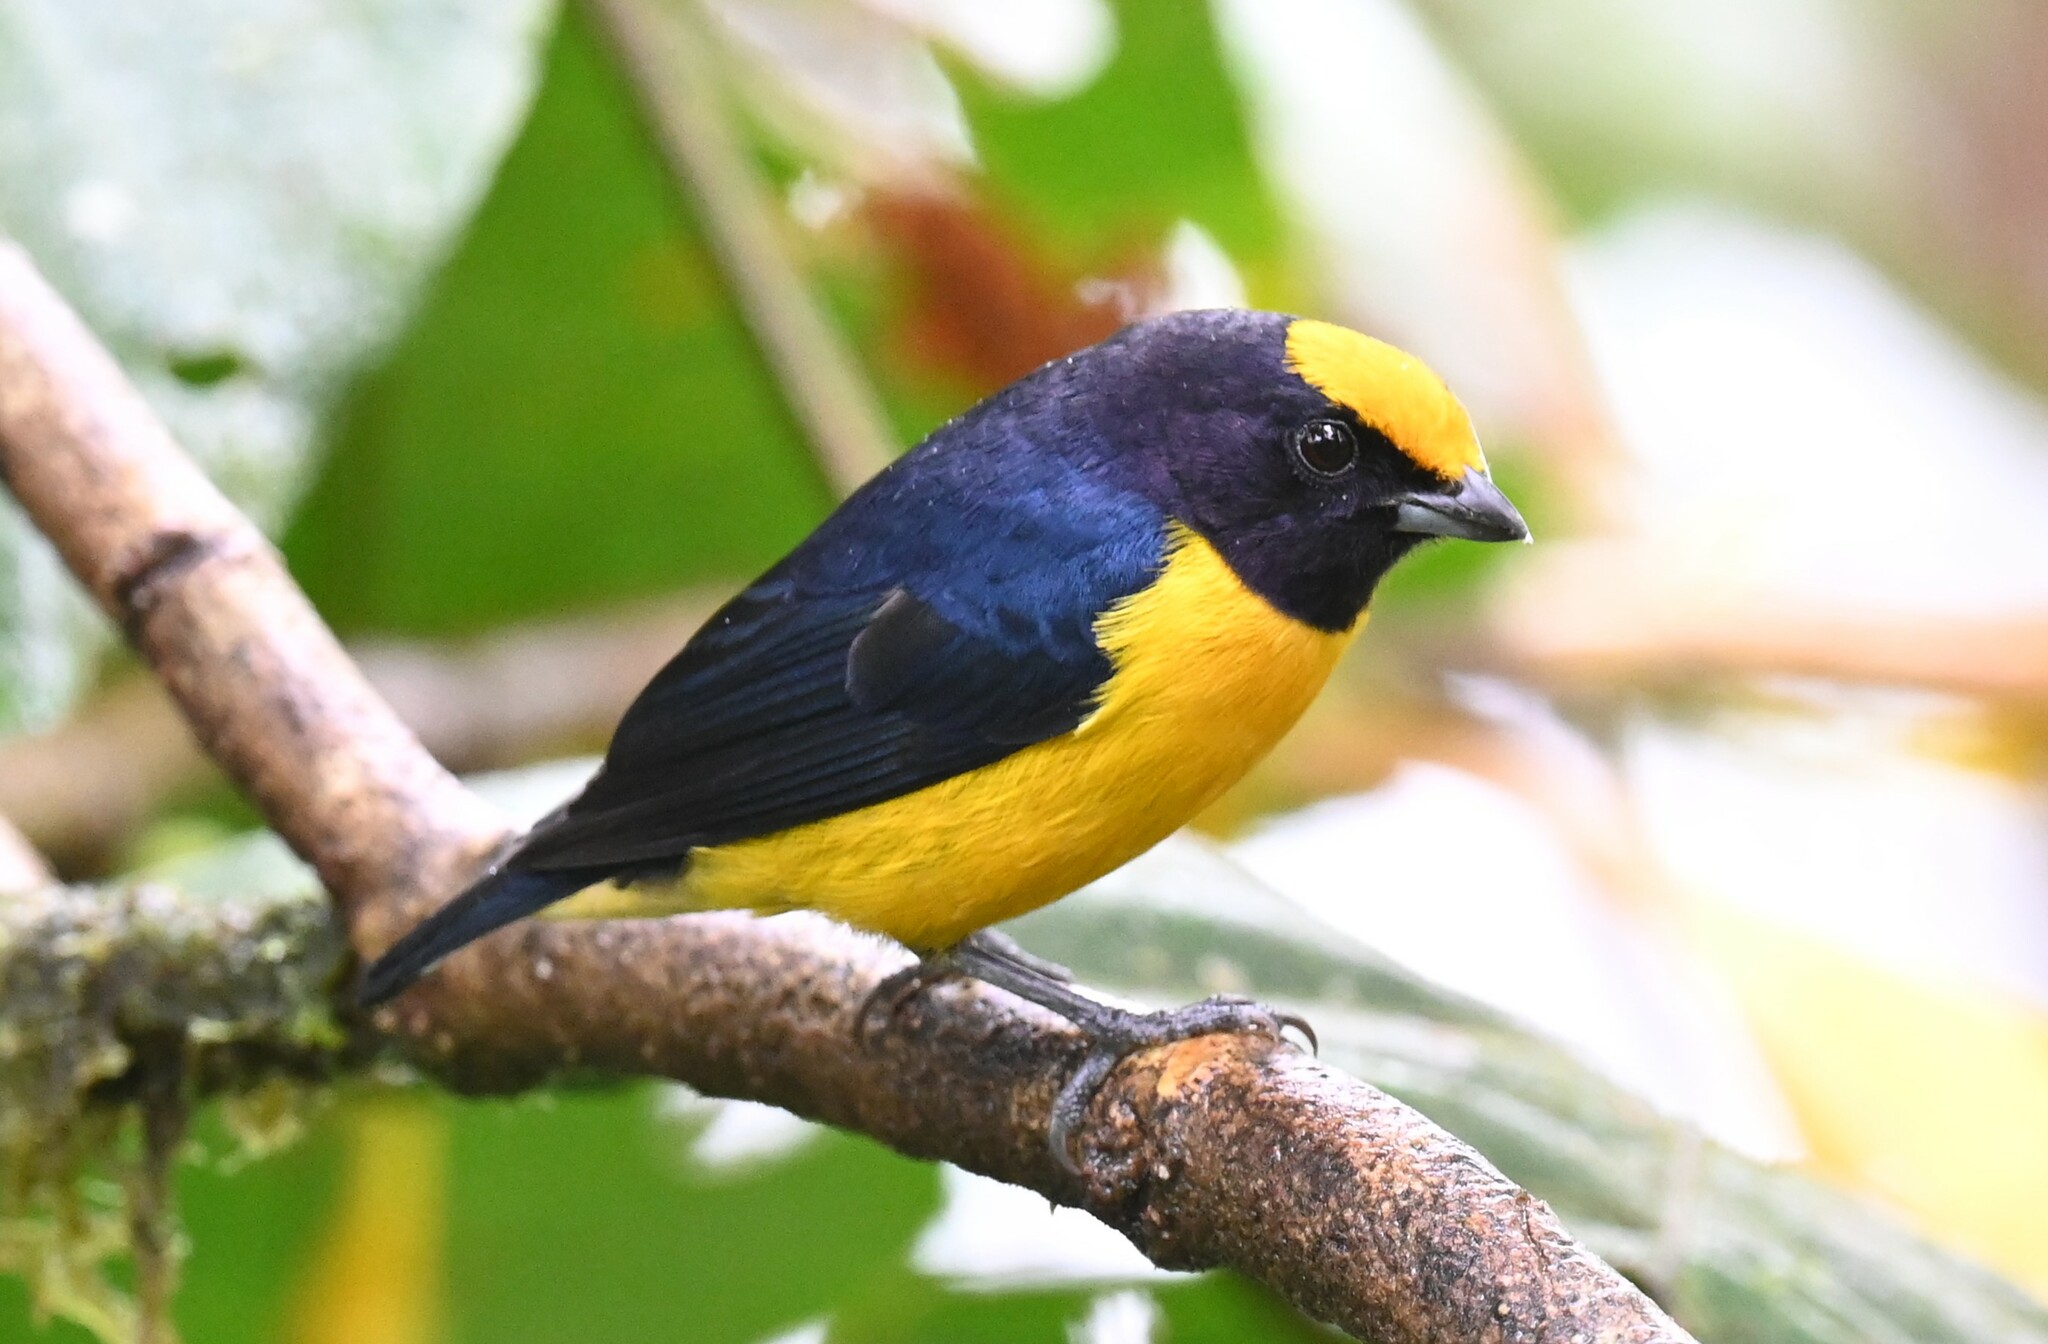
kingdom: Animalia
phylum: Chordata
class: Aves
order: Passeriformes
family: Fringillidae
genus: Euphonia
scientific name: Euphonia xanthogaster
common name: Orange-bellied euphonia
